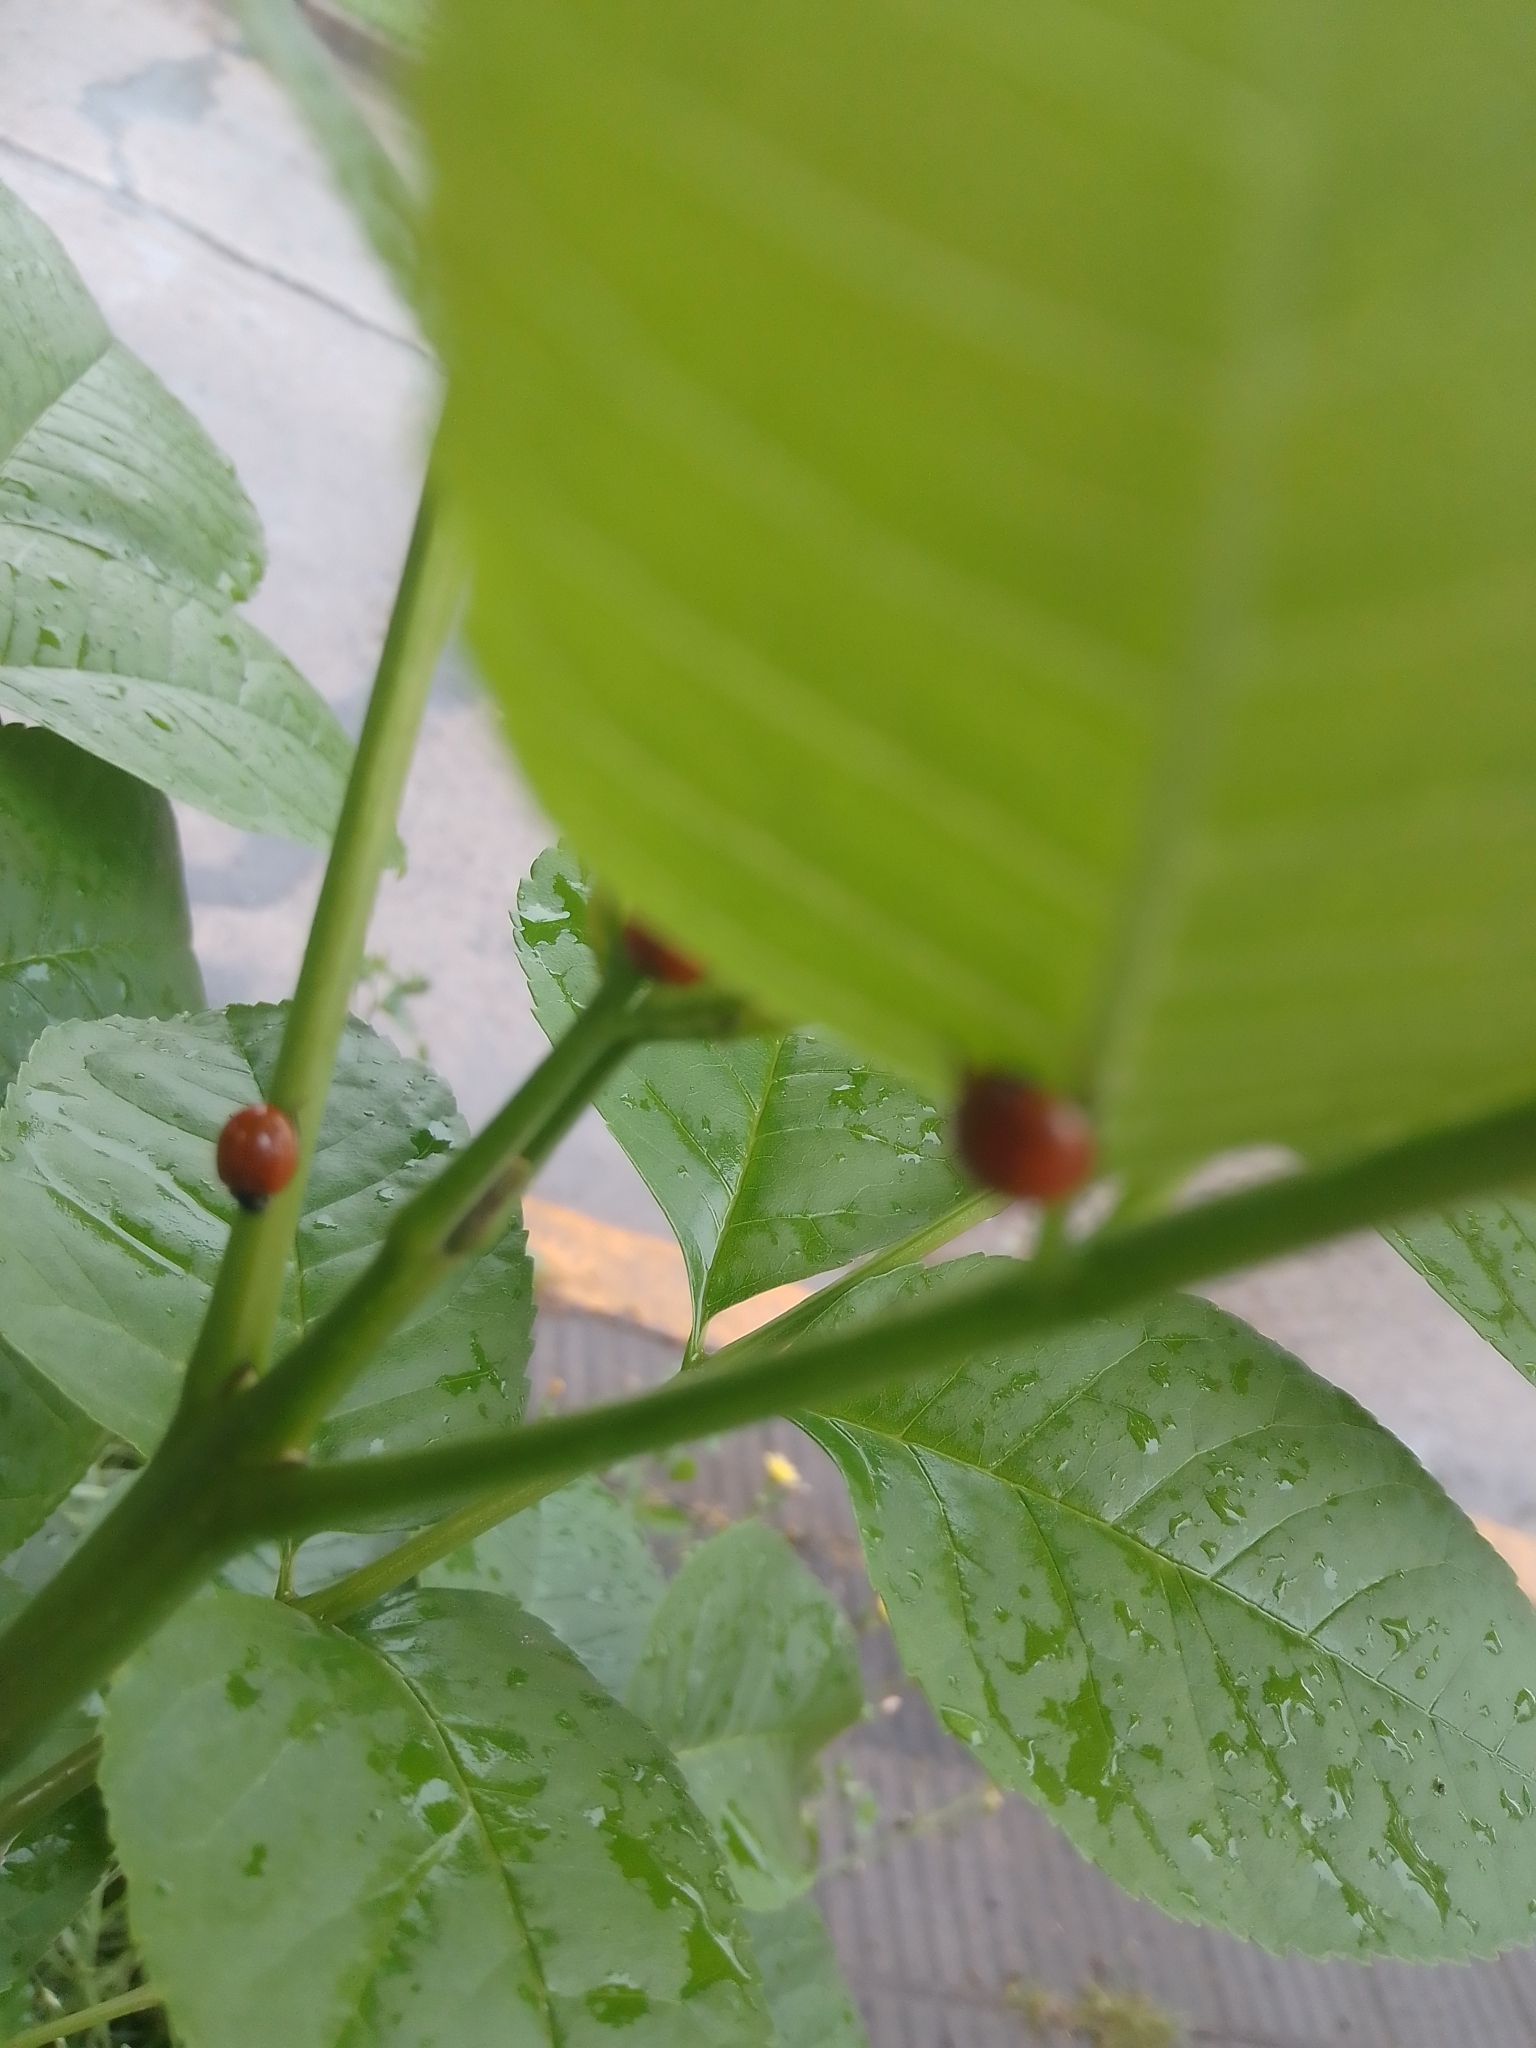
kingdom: Animalia
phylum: Arthropoda
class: Insecta
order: Coleoptera
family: Coccinellidae
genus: Cycloneda
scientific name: Cycloneda sanguinea
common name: Ladybird beetle
